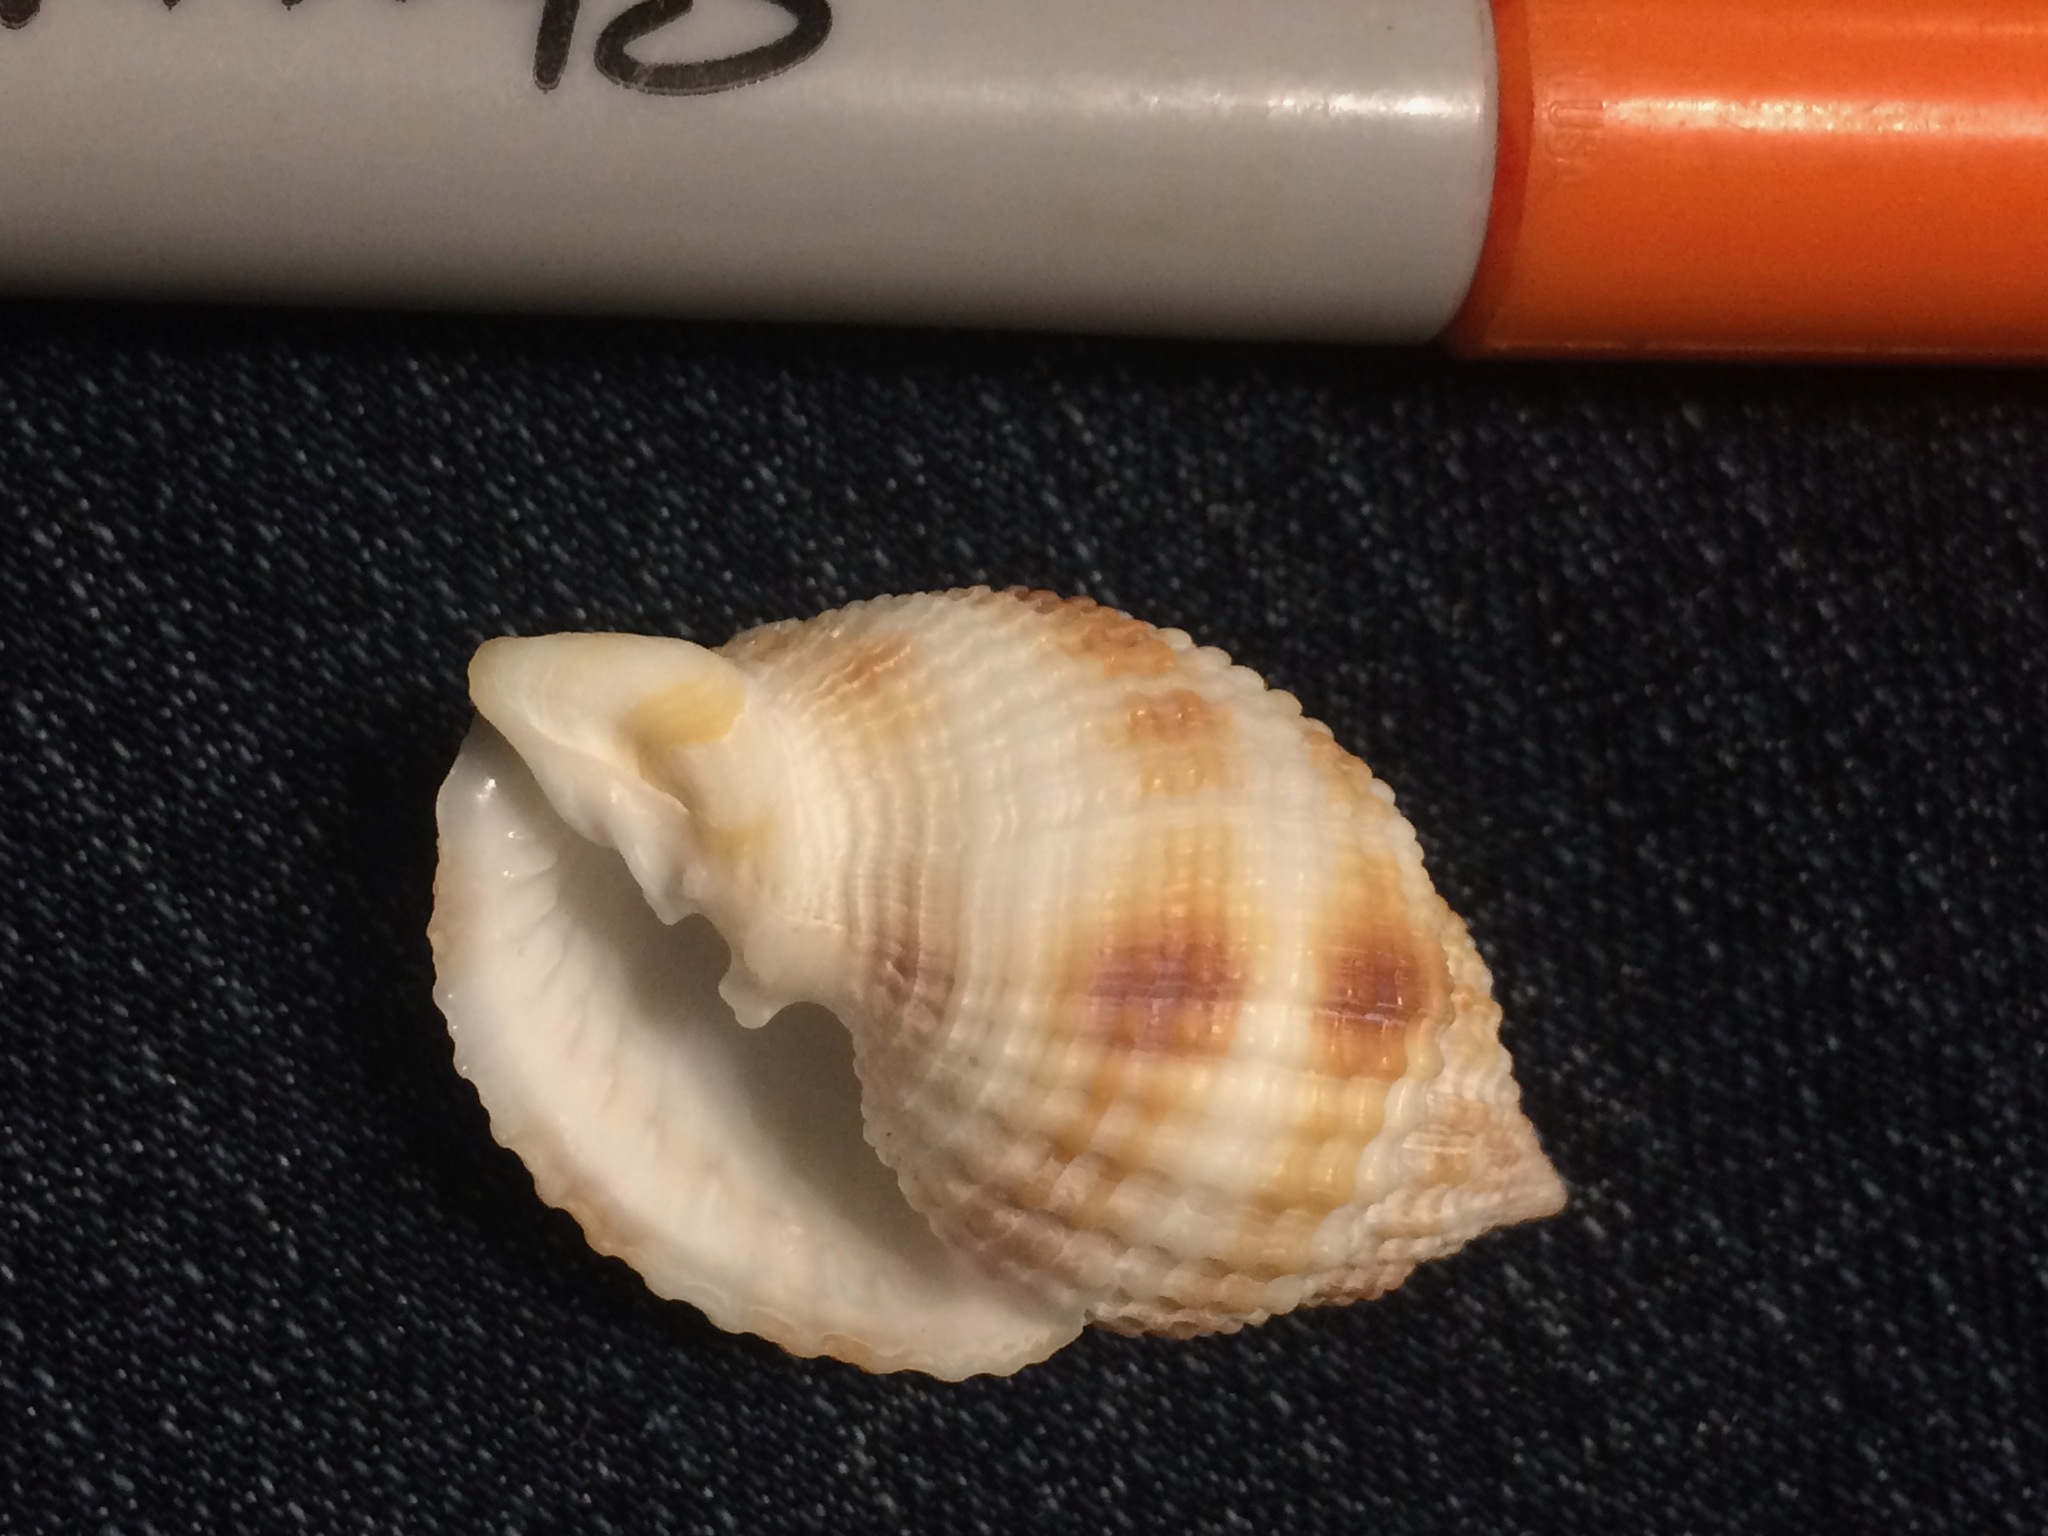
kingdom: Animalia
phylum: Mollusca
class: Gastropoda
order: Neogastropoda
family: Cancellariidae
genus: Cancellaria
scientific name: Cancellaria reticulata
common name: Common nutmeg
